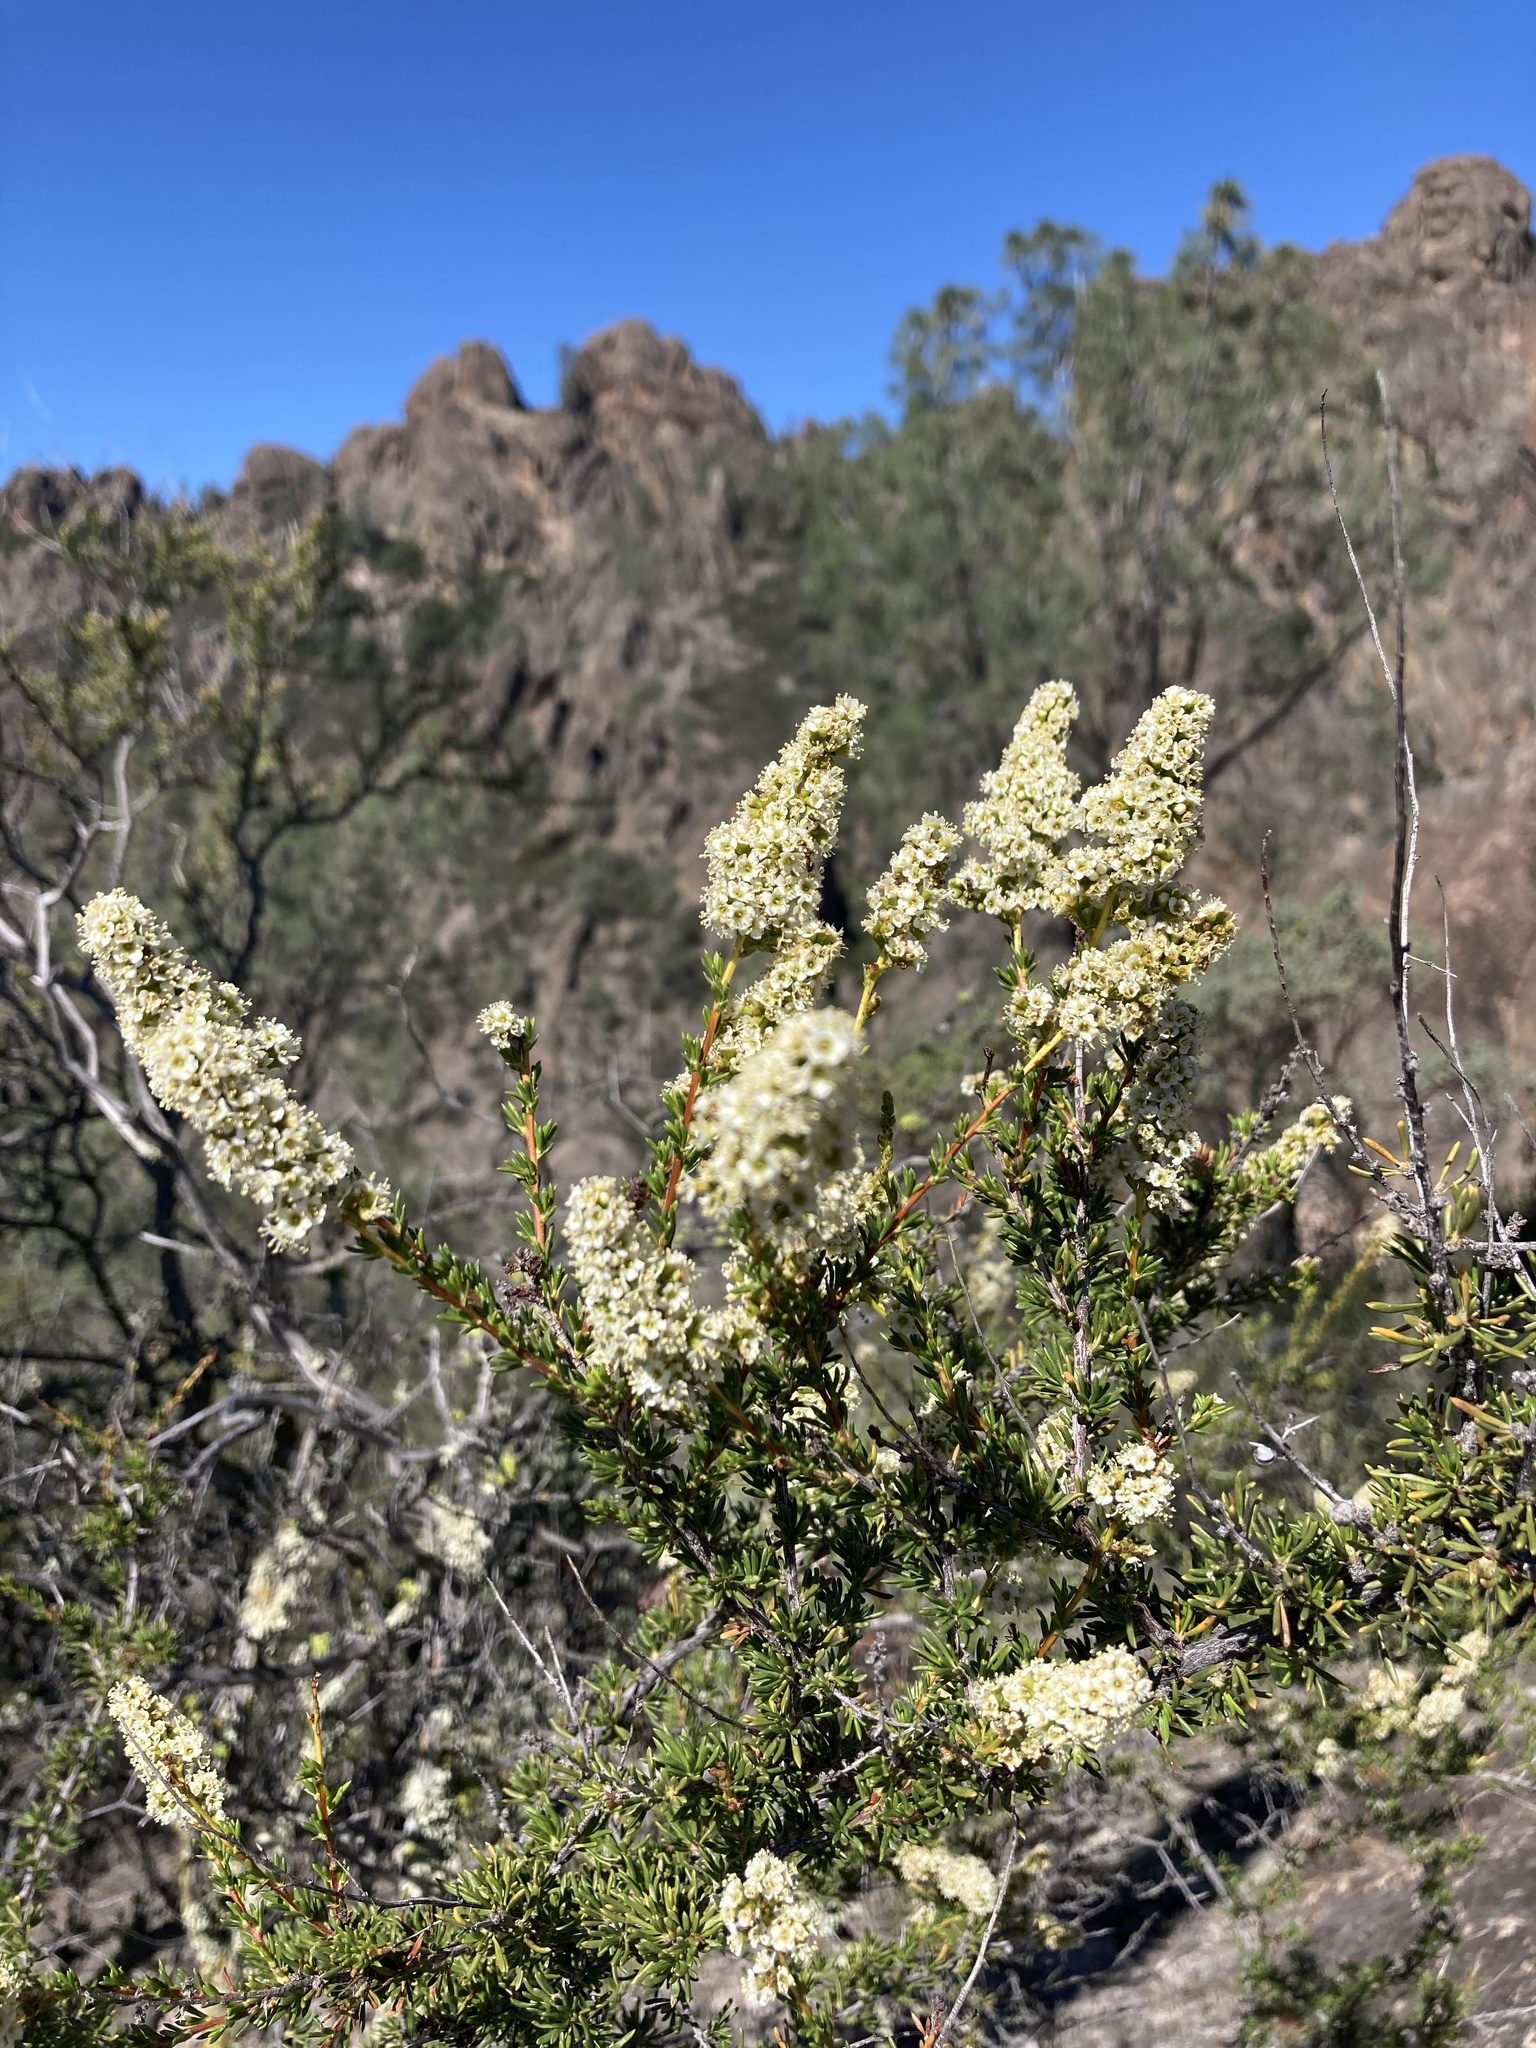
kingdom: Plantae
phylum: Tracheophyta
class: Magnoliopsida
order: Rosales
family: Rosaceae
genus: Adenostoma
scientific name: Adenostoma fasciculatum
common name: Chamise
